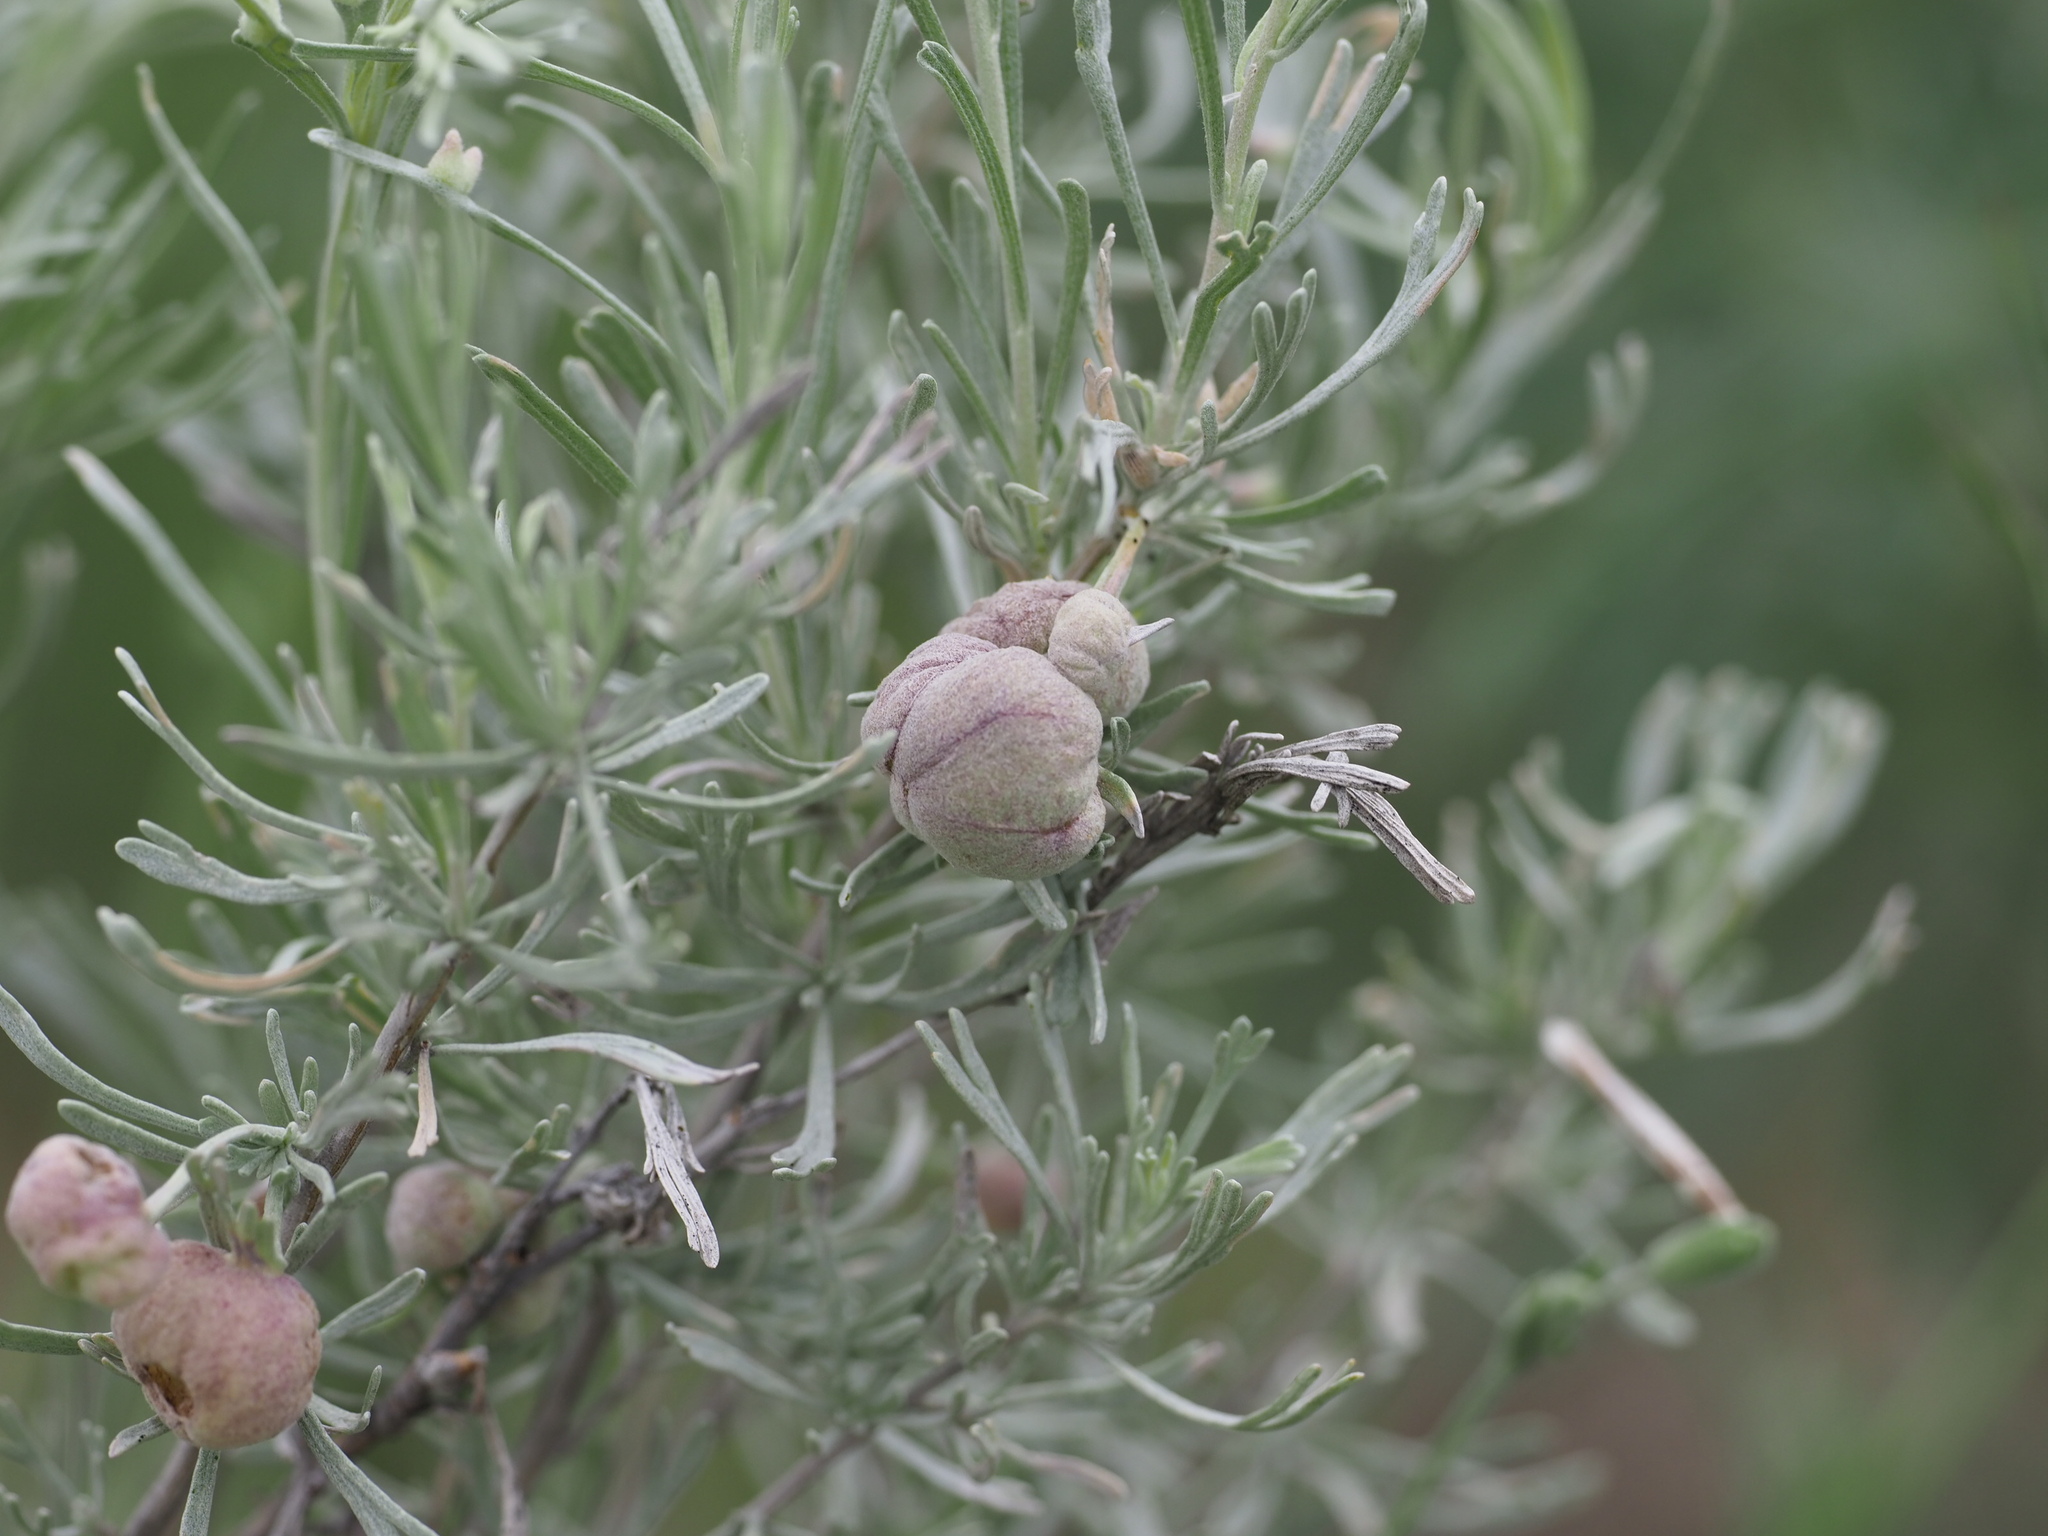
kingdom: Animalia
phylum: Arthropoda
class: Insecta
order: Diptera
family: Cecidomyiidae
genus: Rhopalomyia
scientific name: Rhopalomyia pomum
